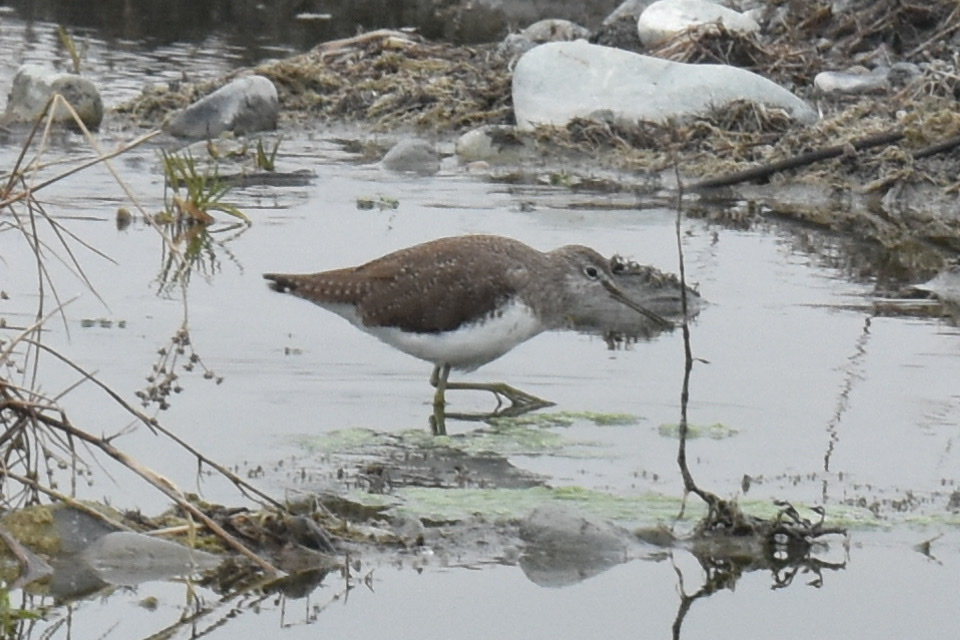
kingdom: Animalia
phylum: Chordata
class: Aves
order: Charadriiformes
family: Scolopacidae
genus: Tringa
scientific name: Tringa ochropus
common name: Green sandpiper
